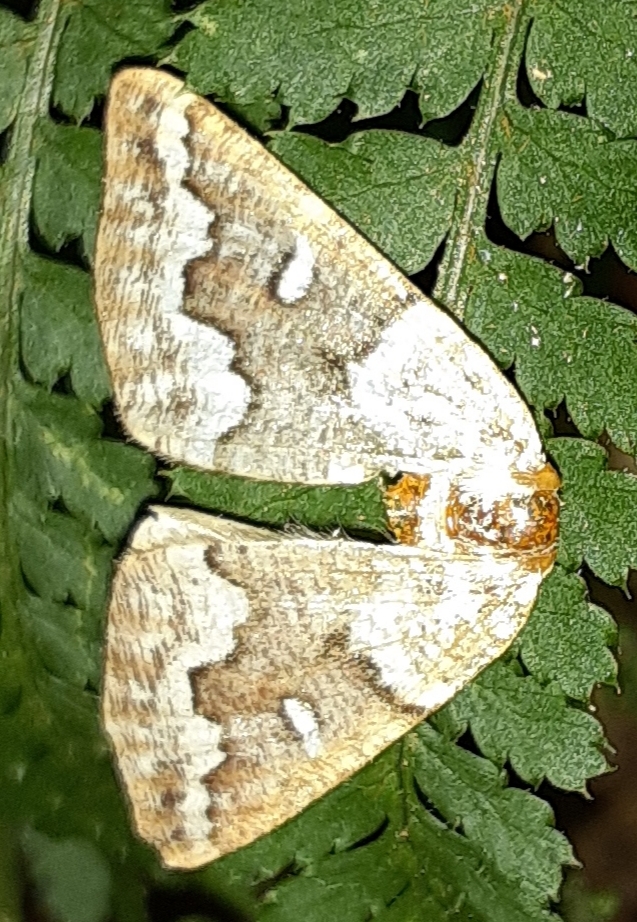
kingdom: Animalia
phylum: Arthropoda
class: Insecta
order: Lepidoptera
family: Geometridae
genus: Caripeta
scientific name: Caripeta divisata
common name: Gray spruce looper
